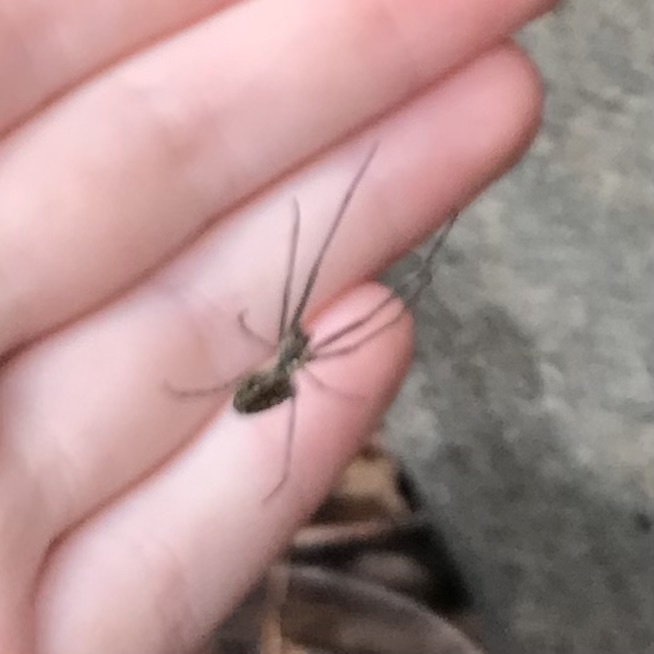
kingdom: Animalia
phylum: Arthropoda
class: Arachnida
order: Araneae
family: Tetragnathidae
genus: Leucauge
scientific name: Leucauge dromedaria
